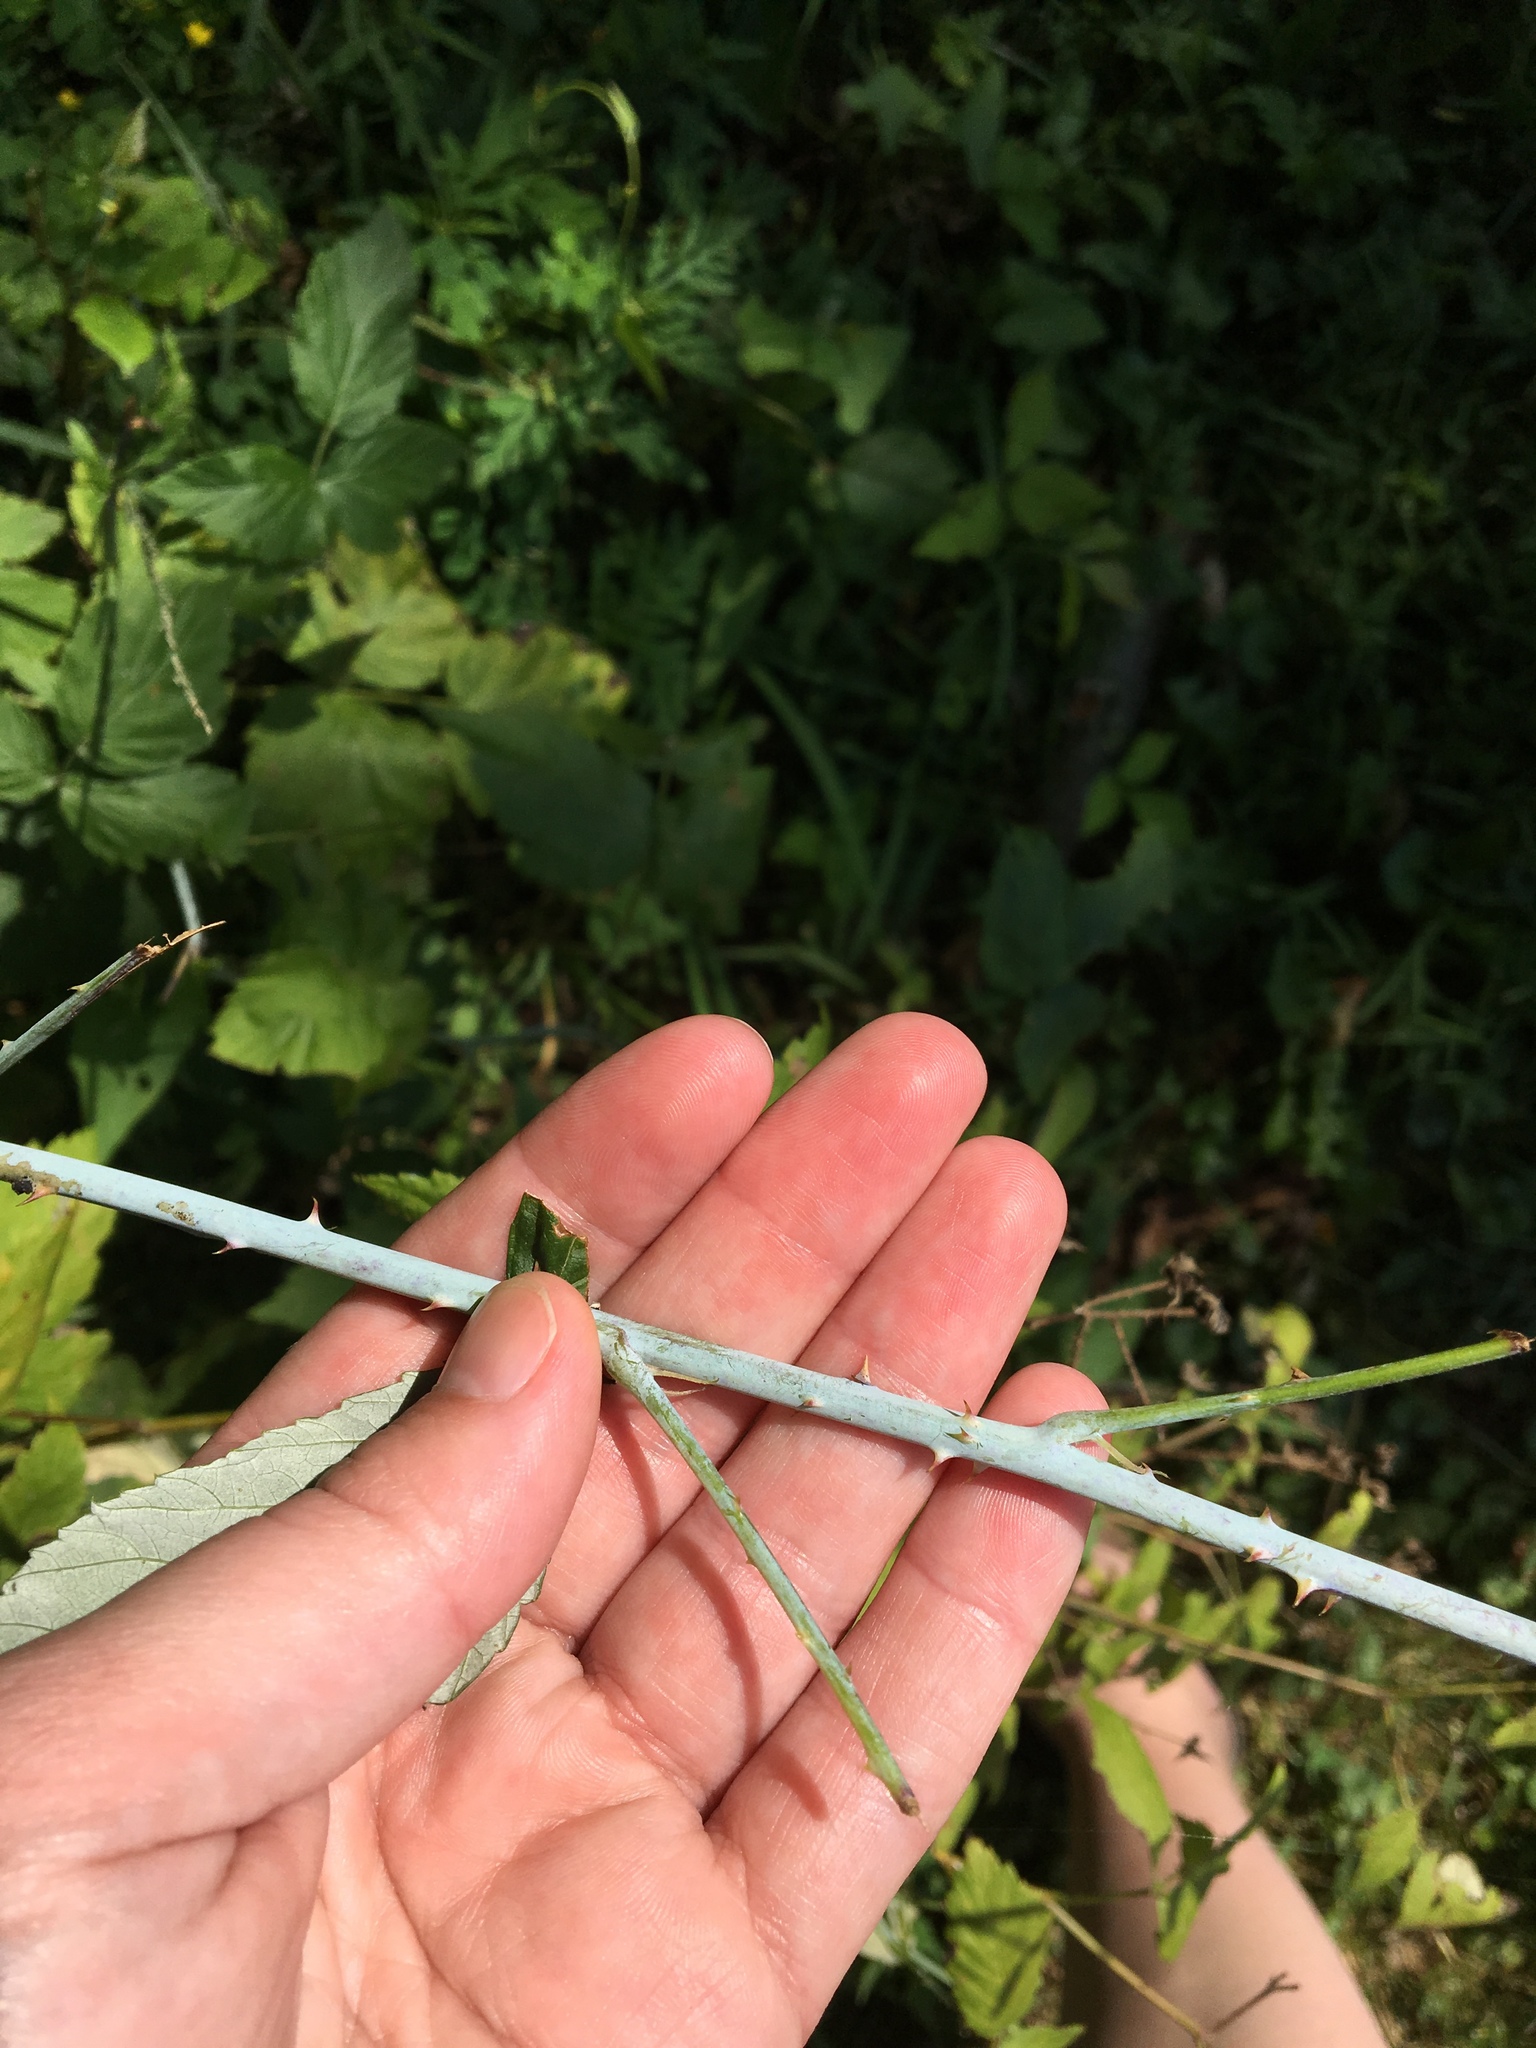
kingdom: Plantae
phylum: Tracheophyta
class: Magnoliopsida
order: Rosales
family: Rosaceae
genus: Rubus
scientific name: Rubus occidentalis
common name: Black raspberry
